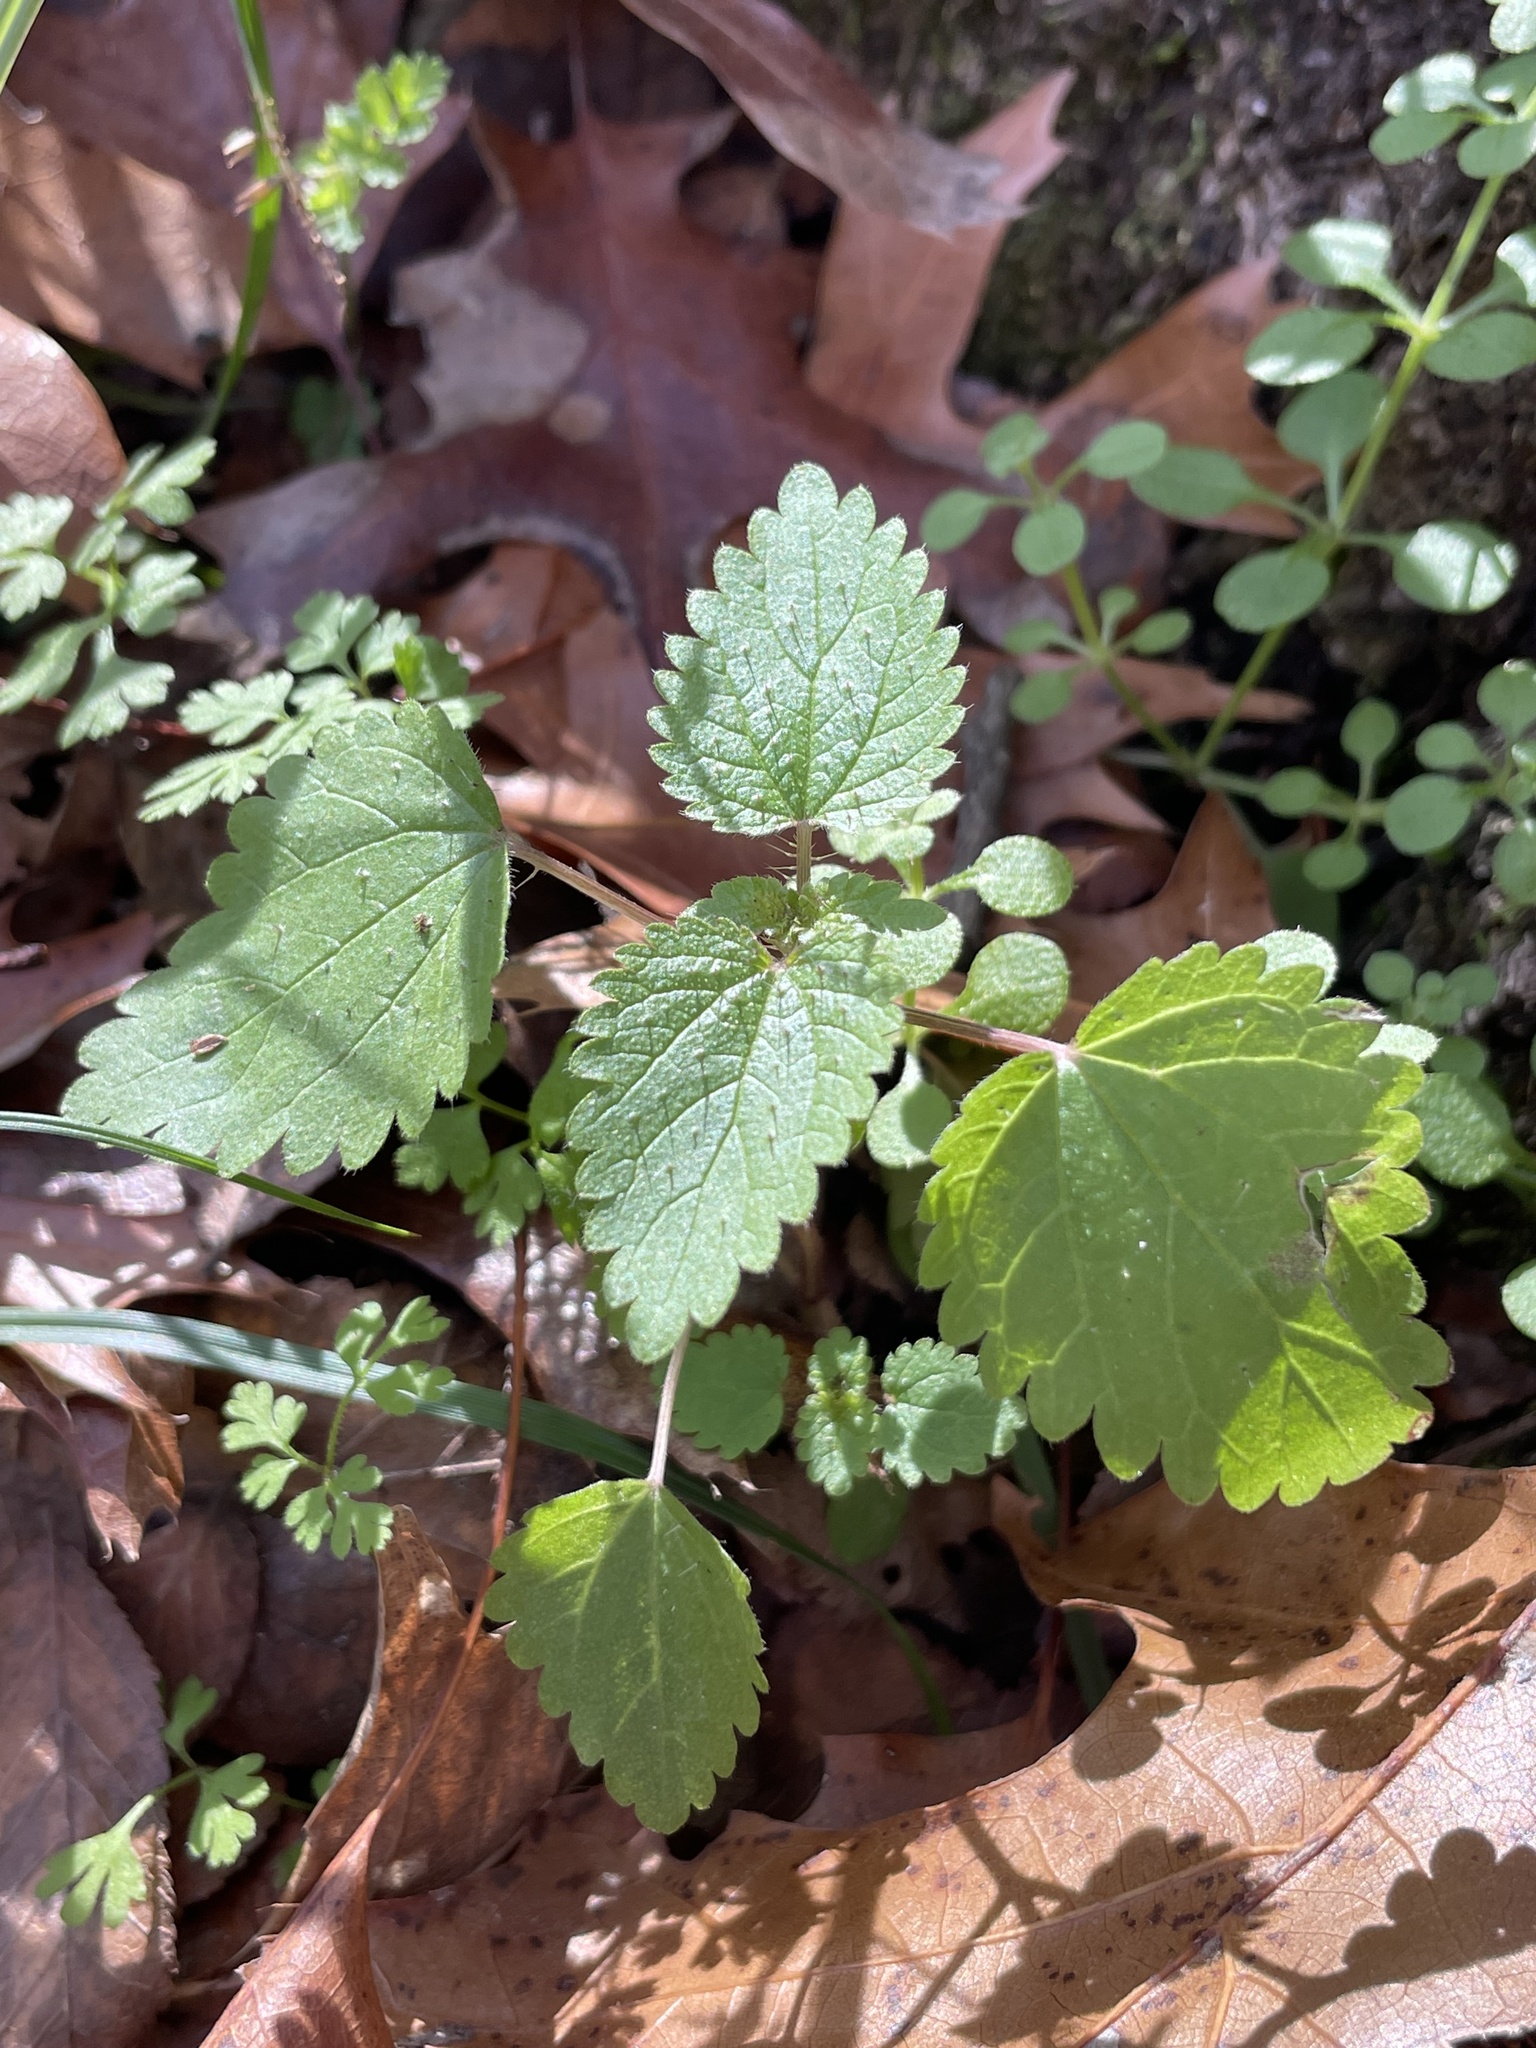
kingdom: Plantae
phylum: Tracheophyta
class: Magnoliopsida
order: Rosales
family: Urticaceae
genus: Urtica
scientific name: Urtica chamaedryoides
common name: Heart-leaf nettle
